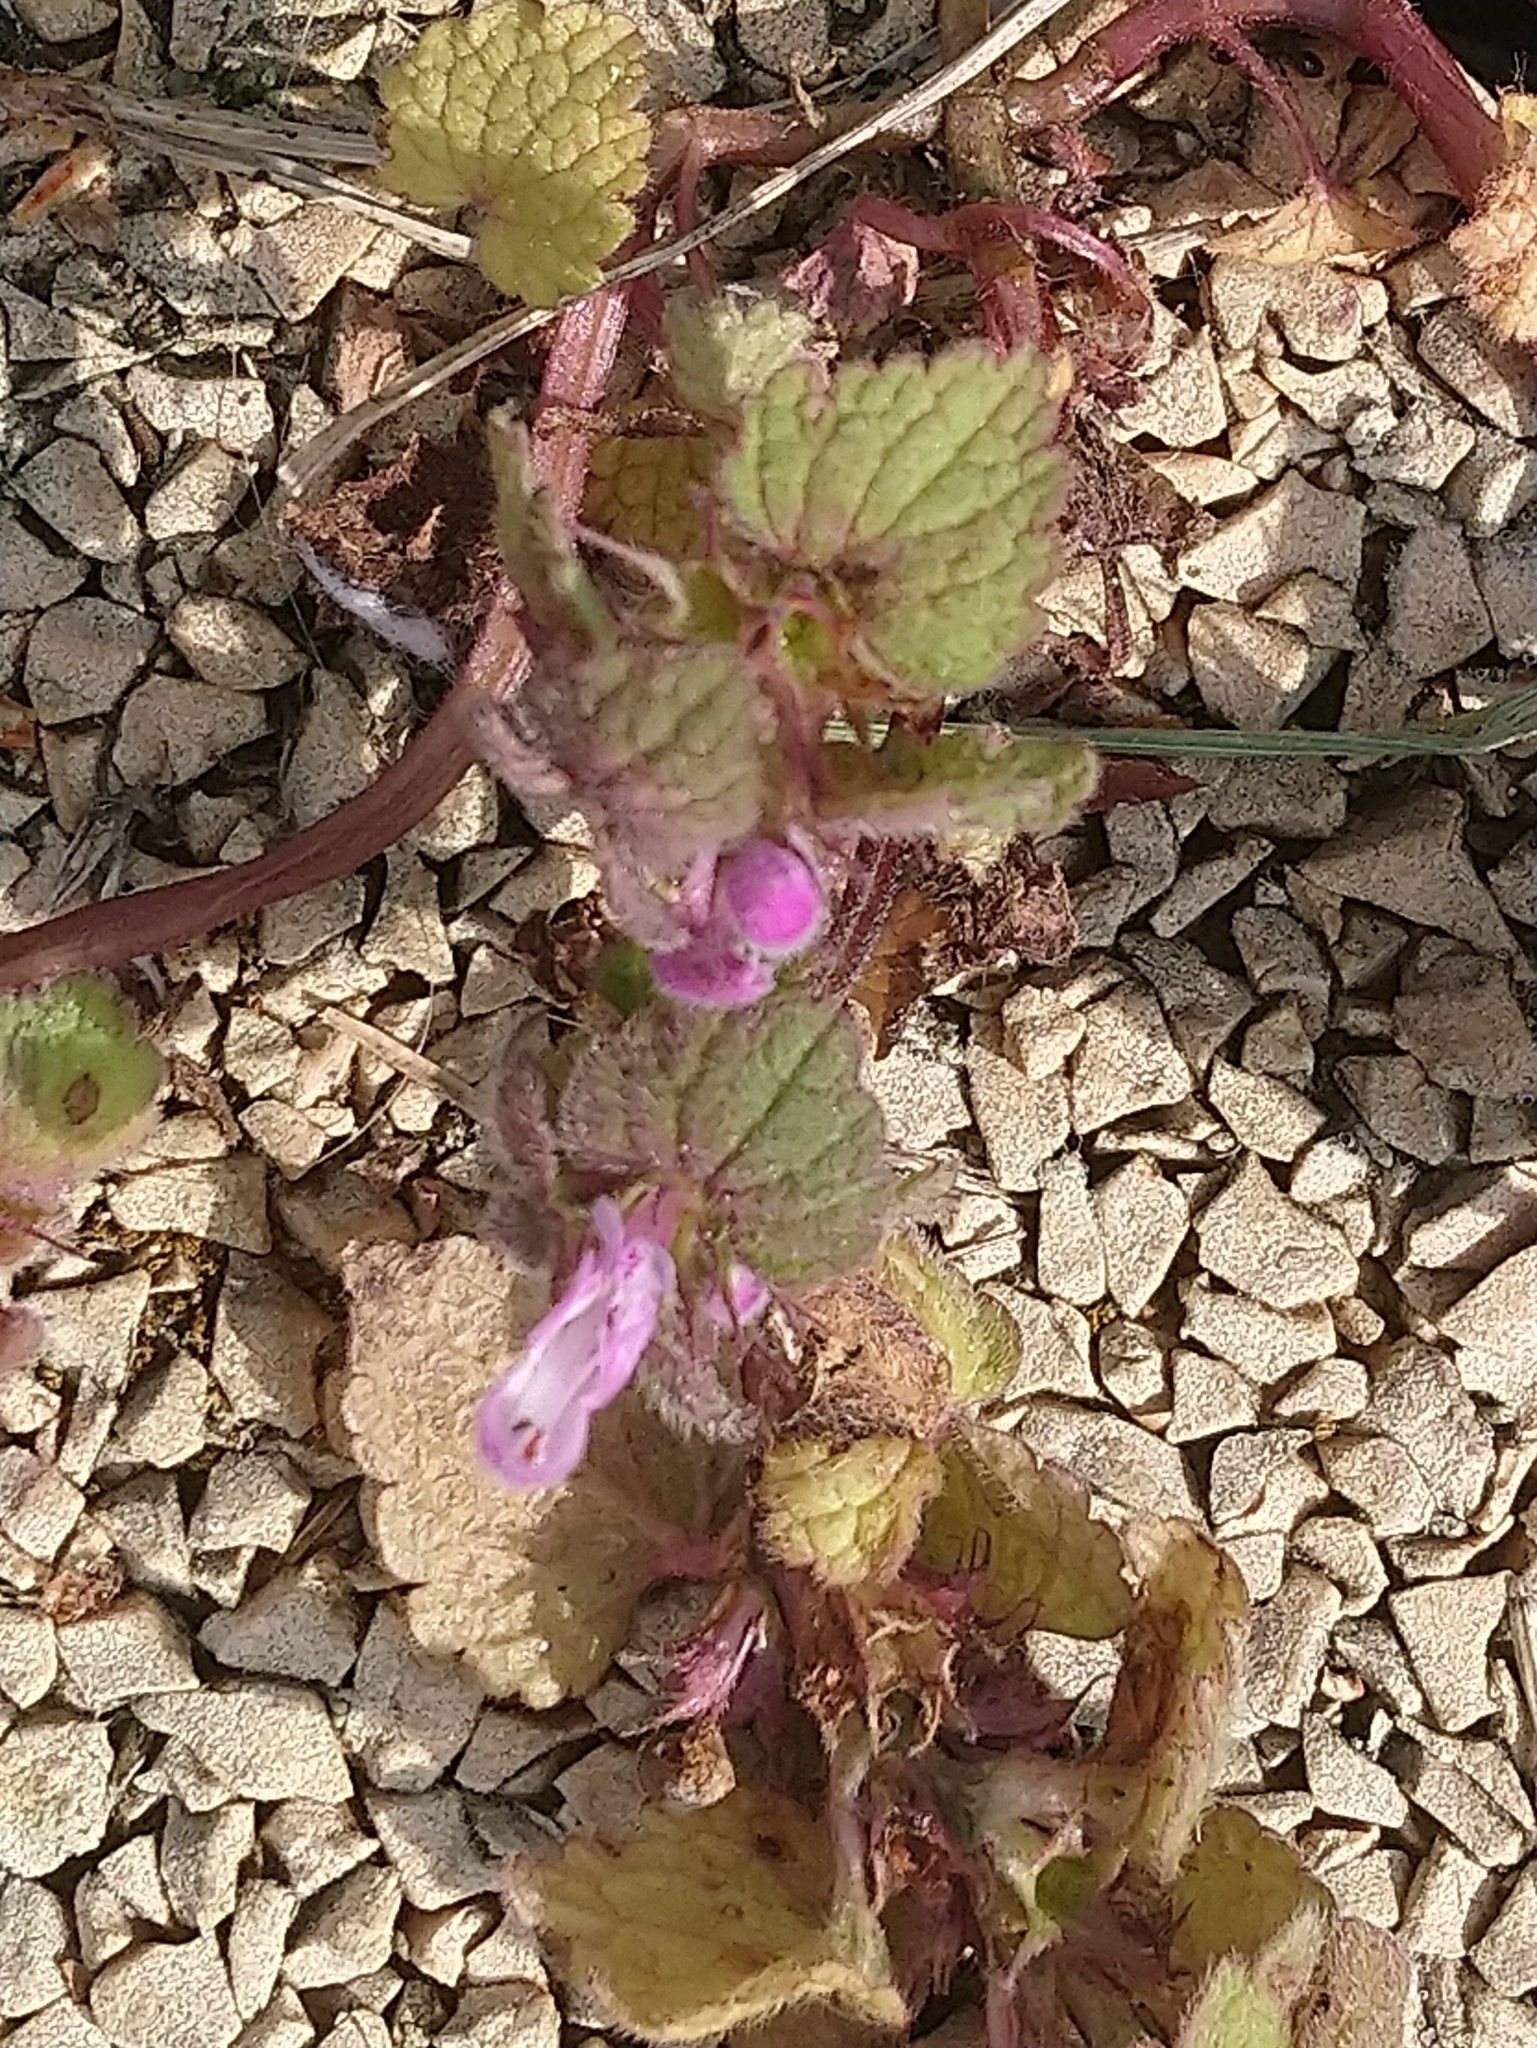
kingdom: Plantae
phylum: Tracheophyta
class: Magnoliopsida
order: Lamiales
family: Lamiaceae
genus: Lamium
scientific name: Lamium purpureum
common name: Red dead-nettle
